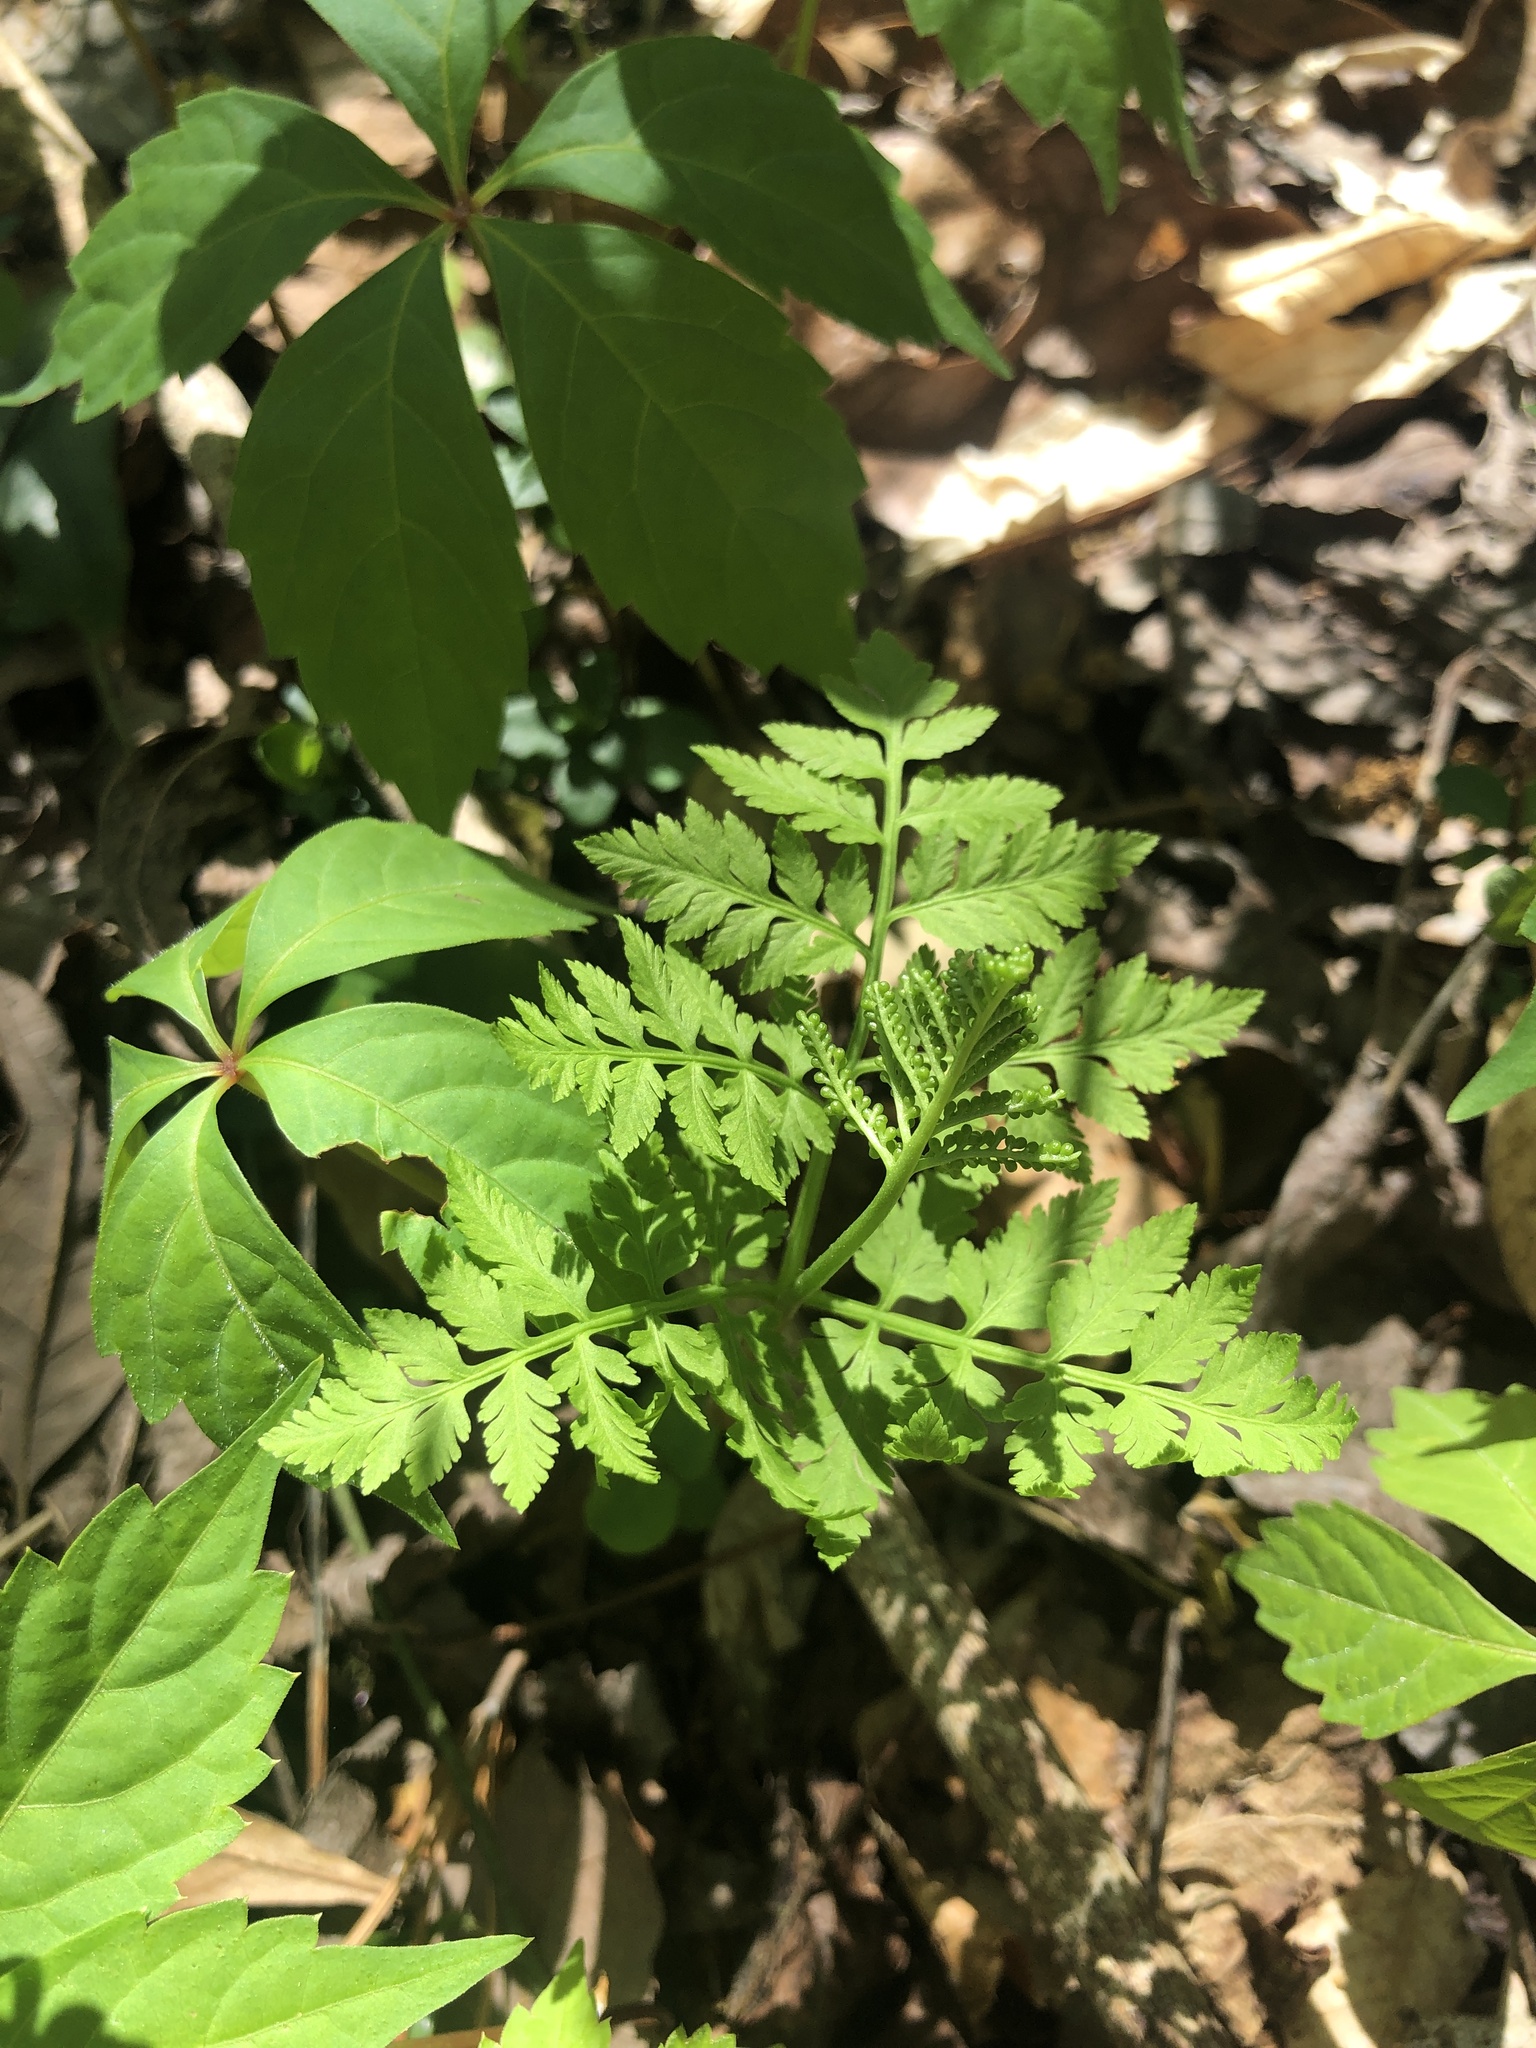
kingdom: Plantae
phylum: Tracheophyta
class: Polypodiopsida
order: Ophioglossales
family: Ophioglossaceae
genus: Botrypus
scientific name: Botrypus virginianus
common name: Common grapefern
